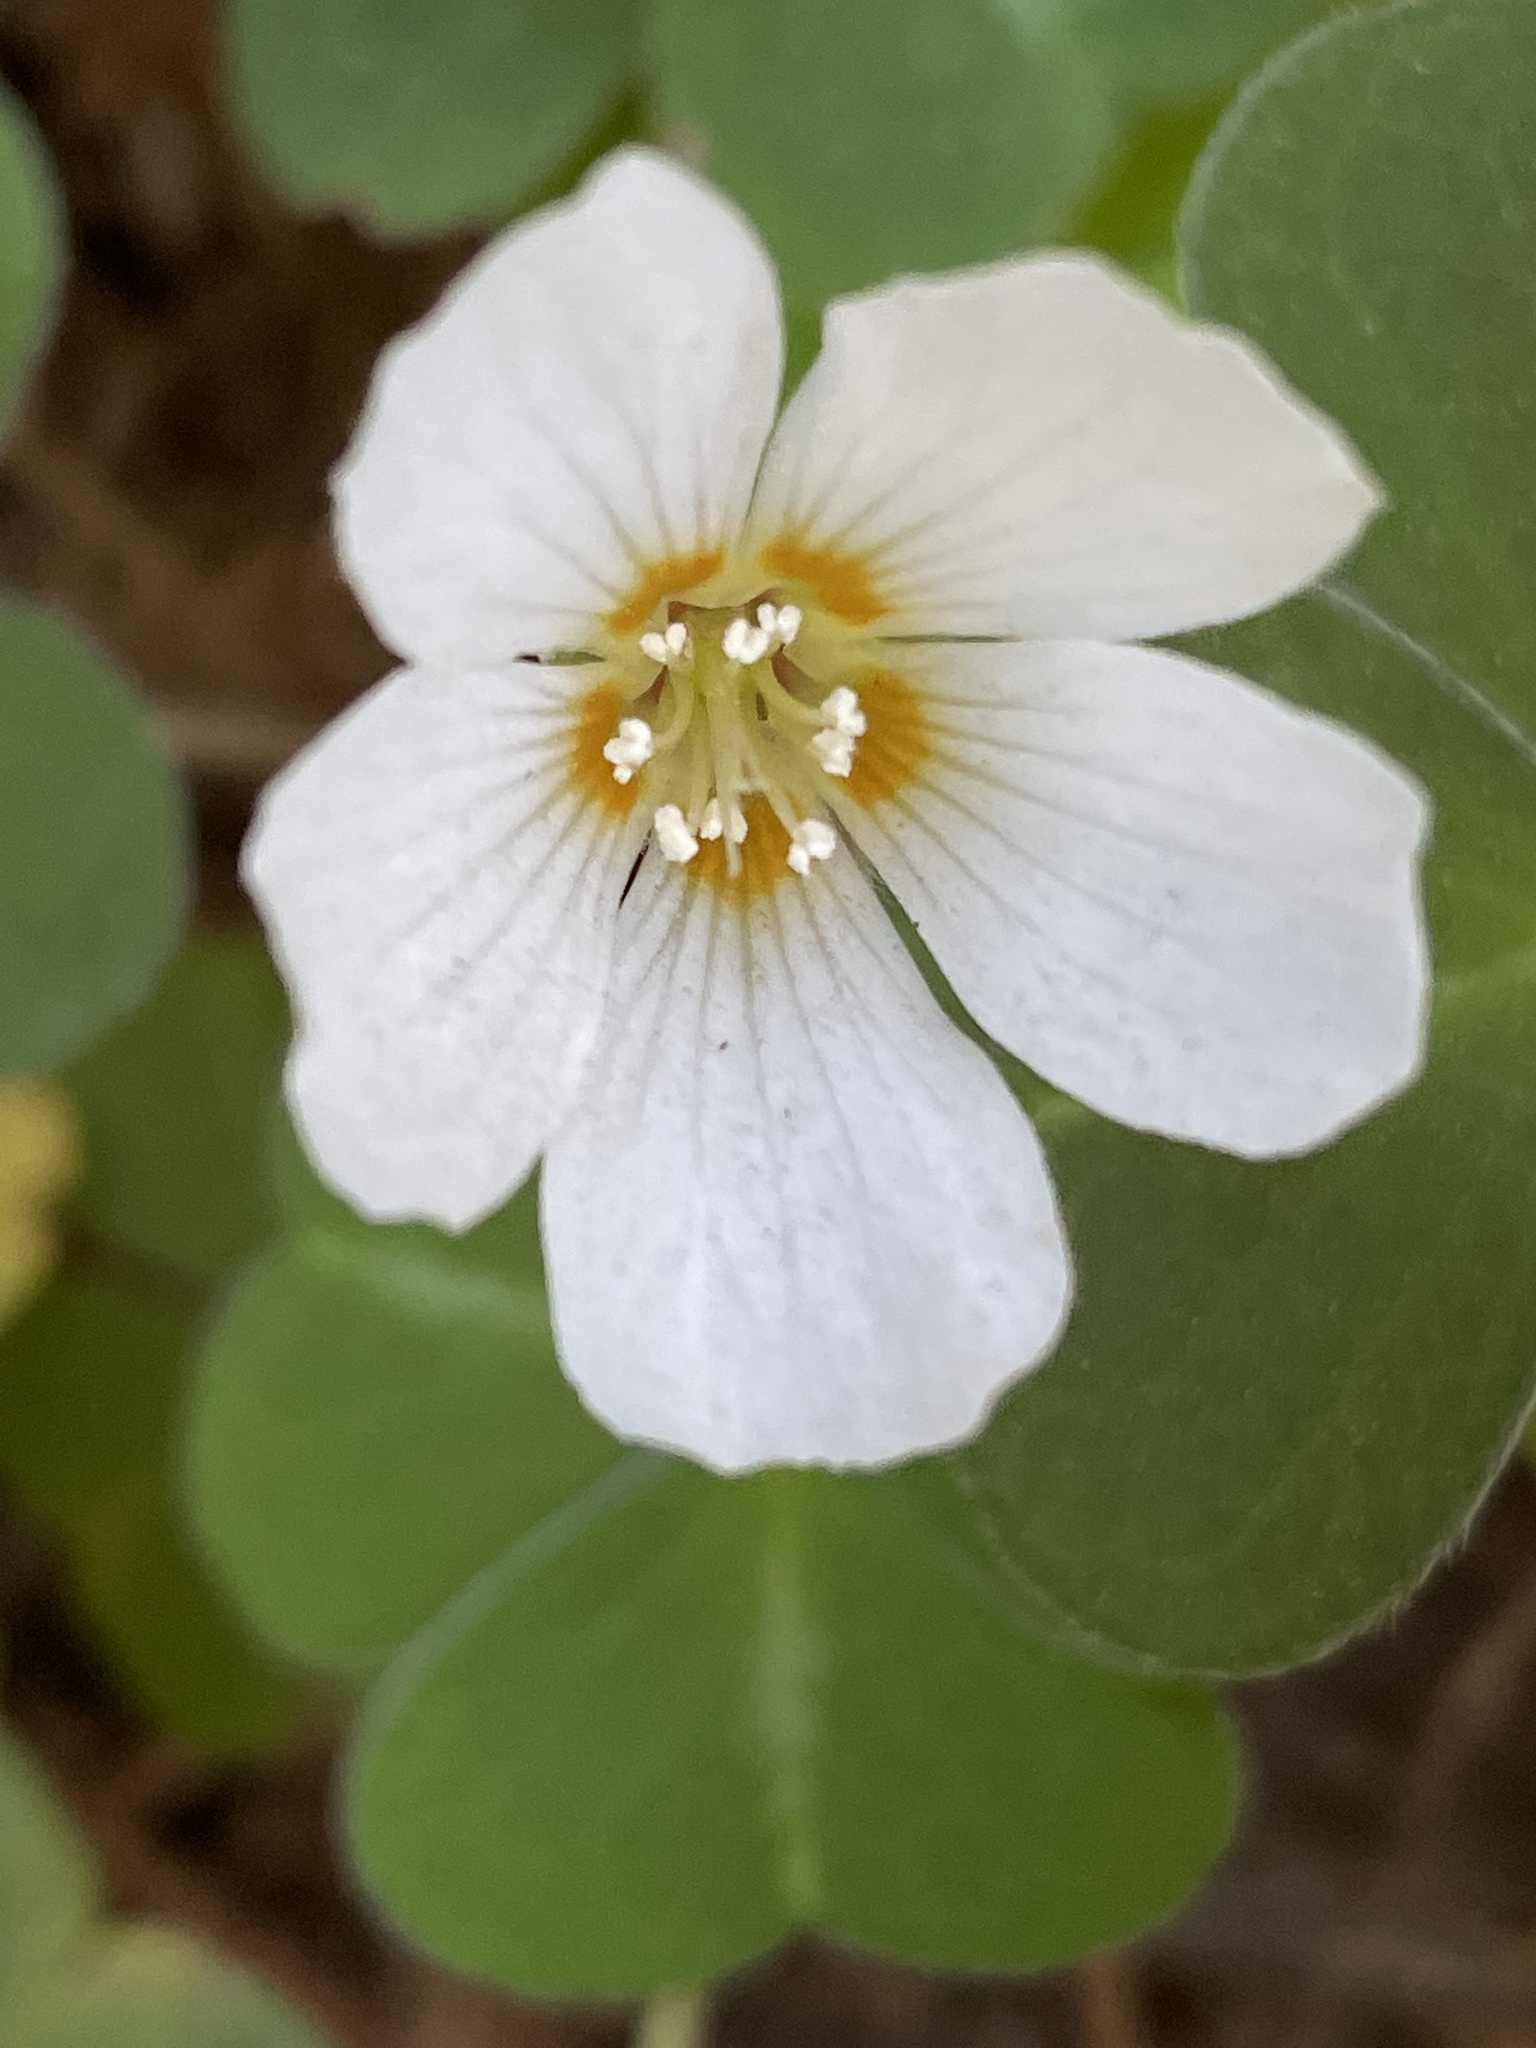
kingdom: Plantae
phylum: Tracheophyta
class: Magnoliopsida
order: Oxalidales
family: Oxalidaceae
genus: Oxalis
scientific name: Oxalis oregana
